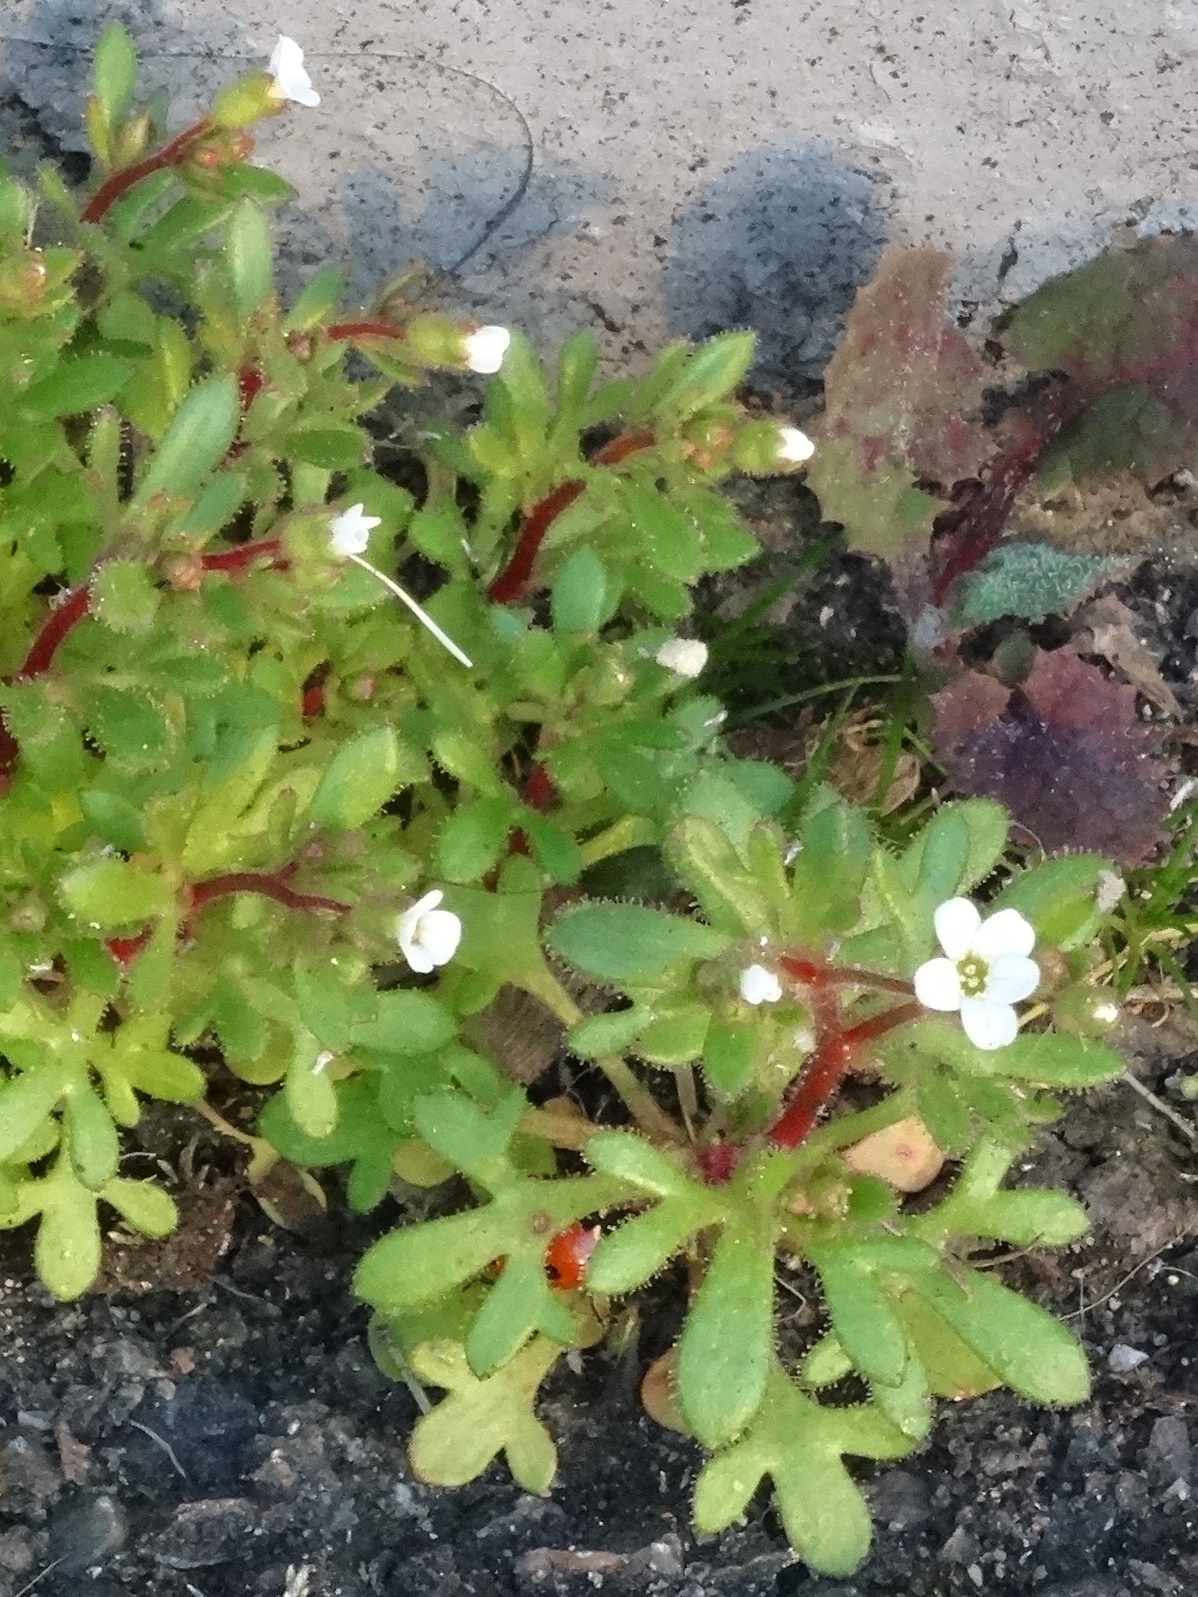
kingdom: Plantae
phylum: Tracheophyta
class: Magnoliopsida
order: Saxifragales
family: Saxifragaceae
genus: Saxifraga
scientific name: Saxifraga tridactylites
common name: Rue-leaved saxifrage
